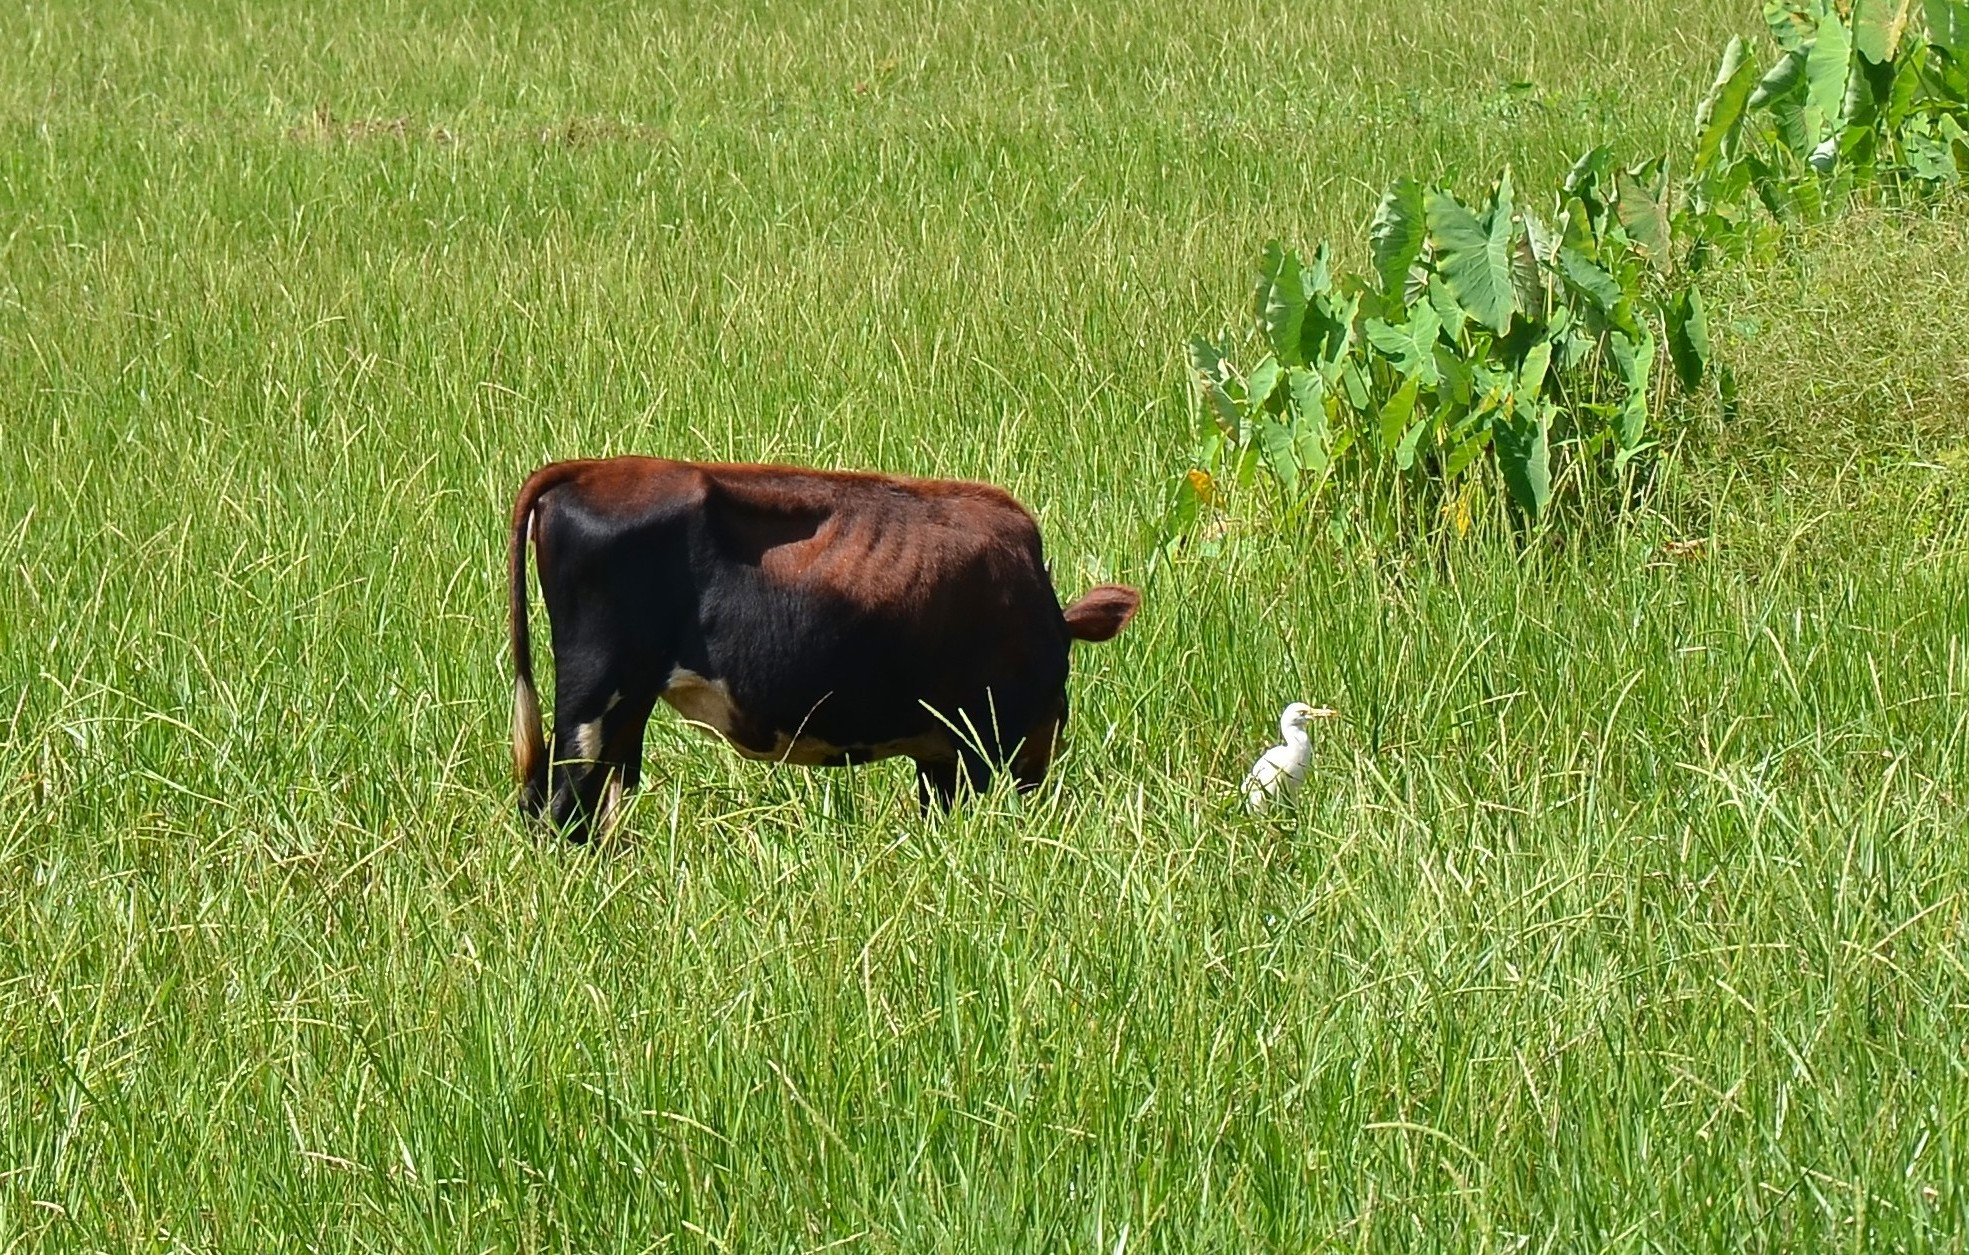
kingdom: Animalia
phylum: Chordata
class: Aves
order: Pelecaniformes
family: Ardeidae
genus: Bubulcus
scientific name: Bubulcus coromandus
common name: Eastern cattle egret
